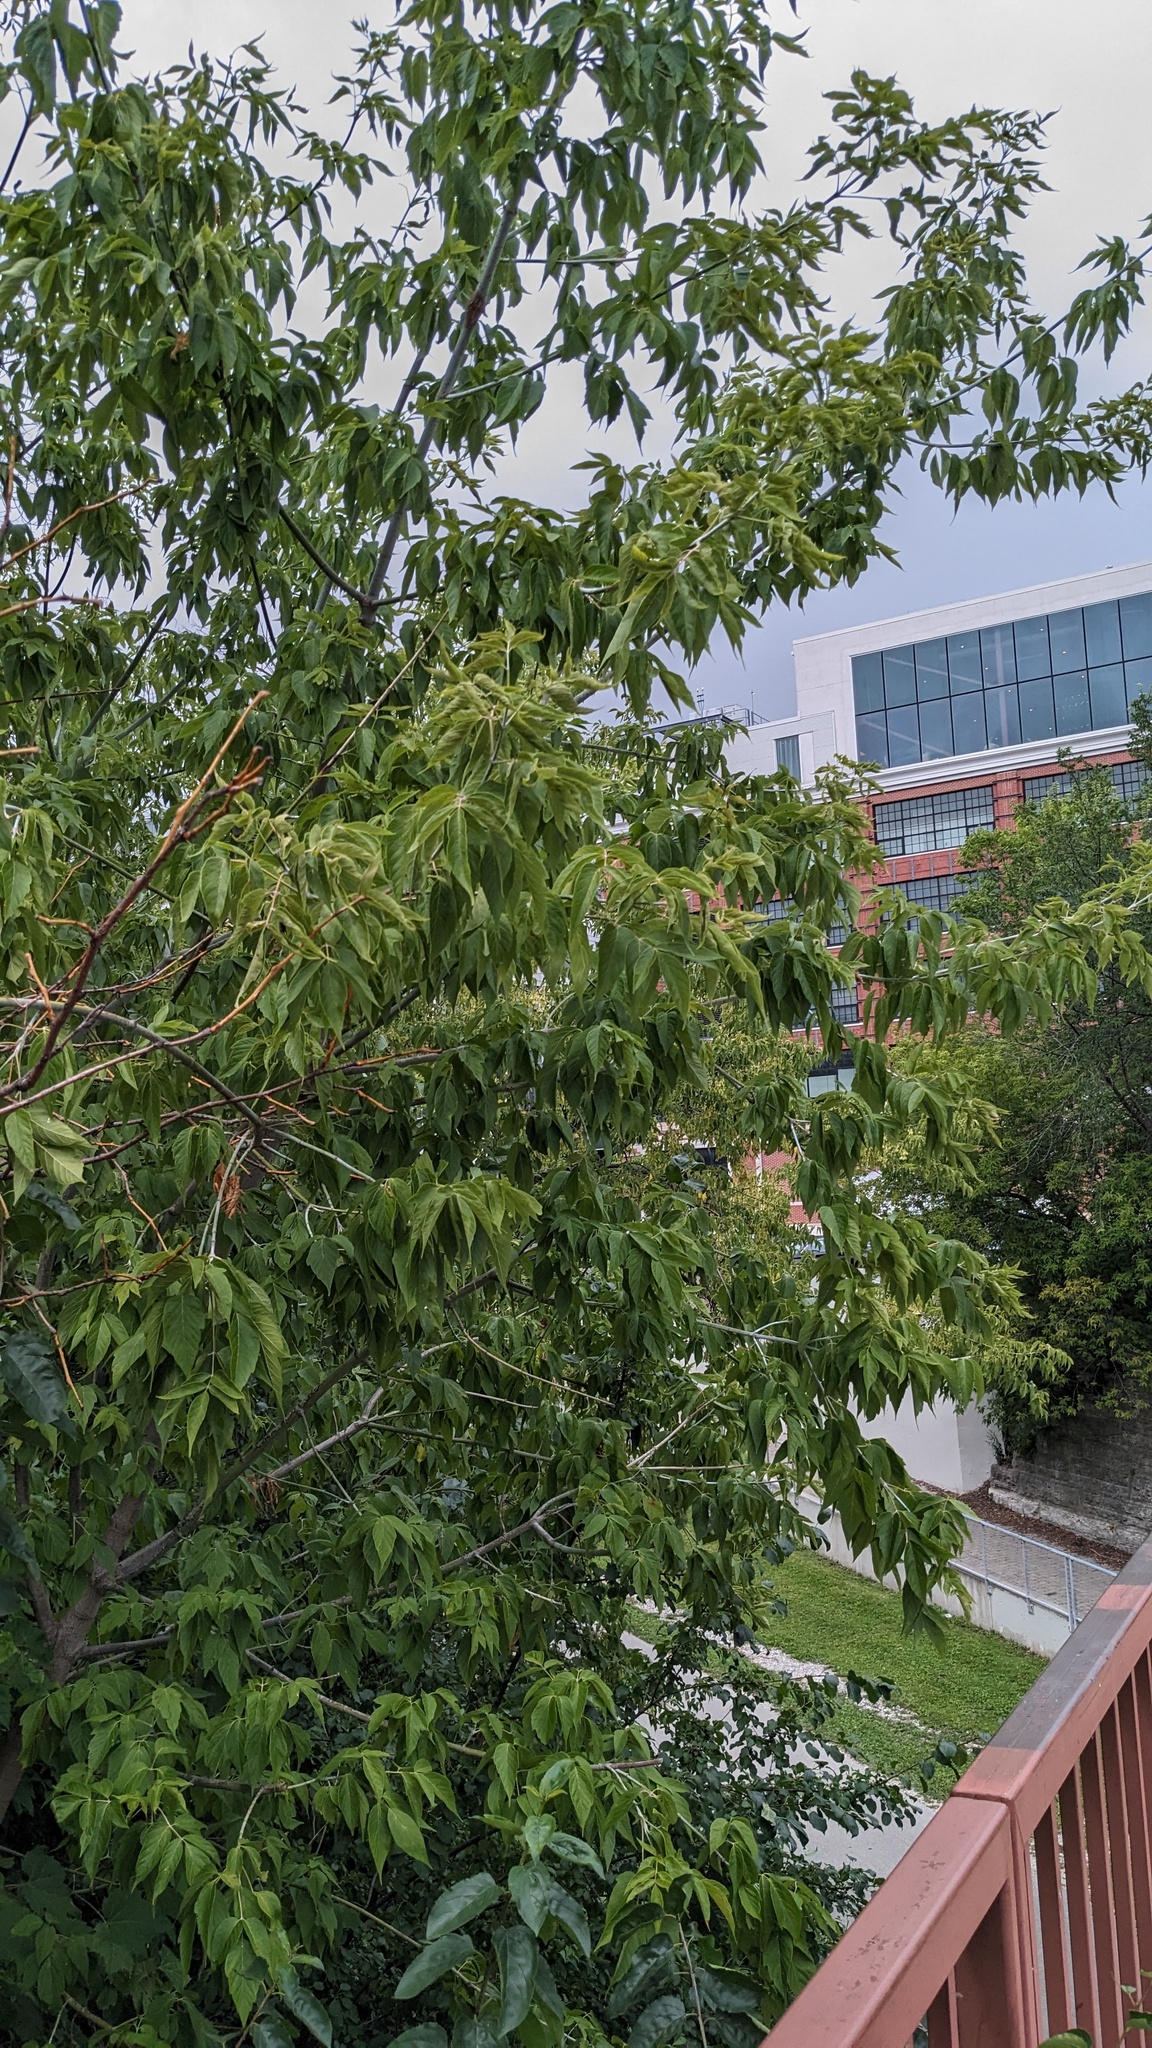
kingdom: Plantae
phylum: Tracheophyta
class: Magnoliopsida
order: Sapindales
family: Sapindaceae
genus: Acer
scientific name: Acer negundo
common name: Ashleaf maple
